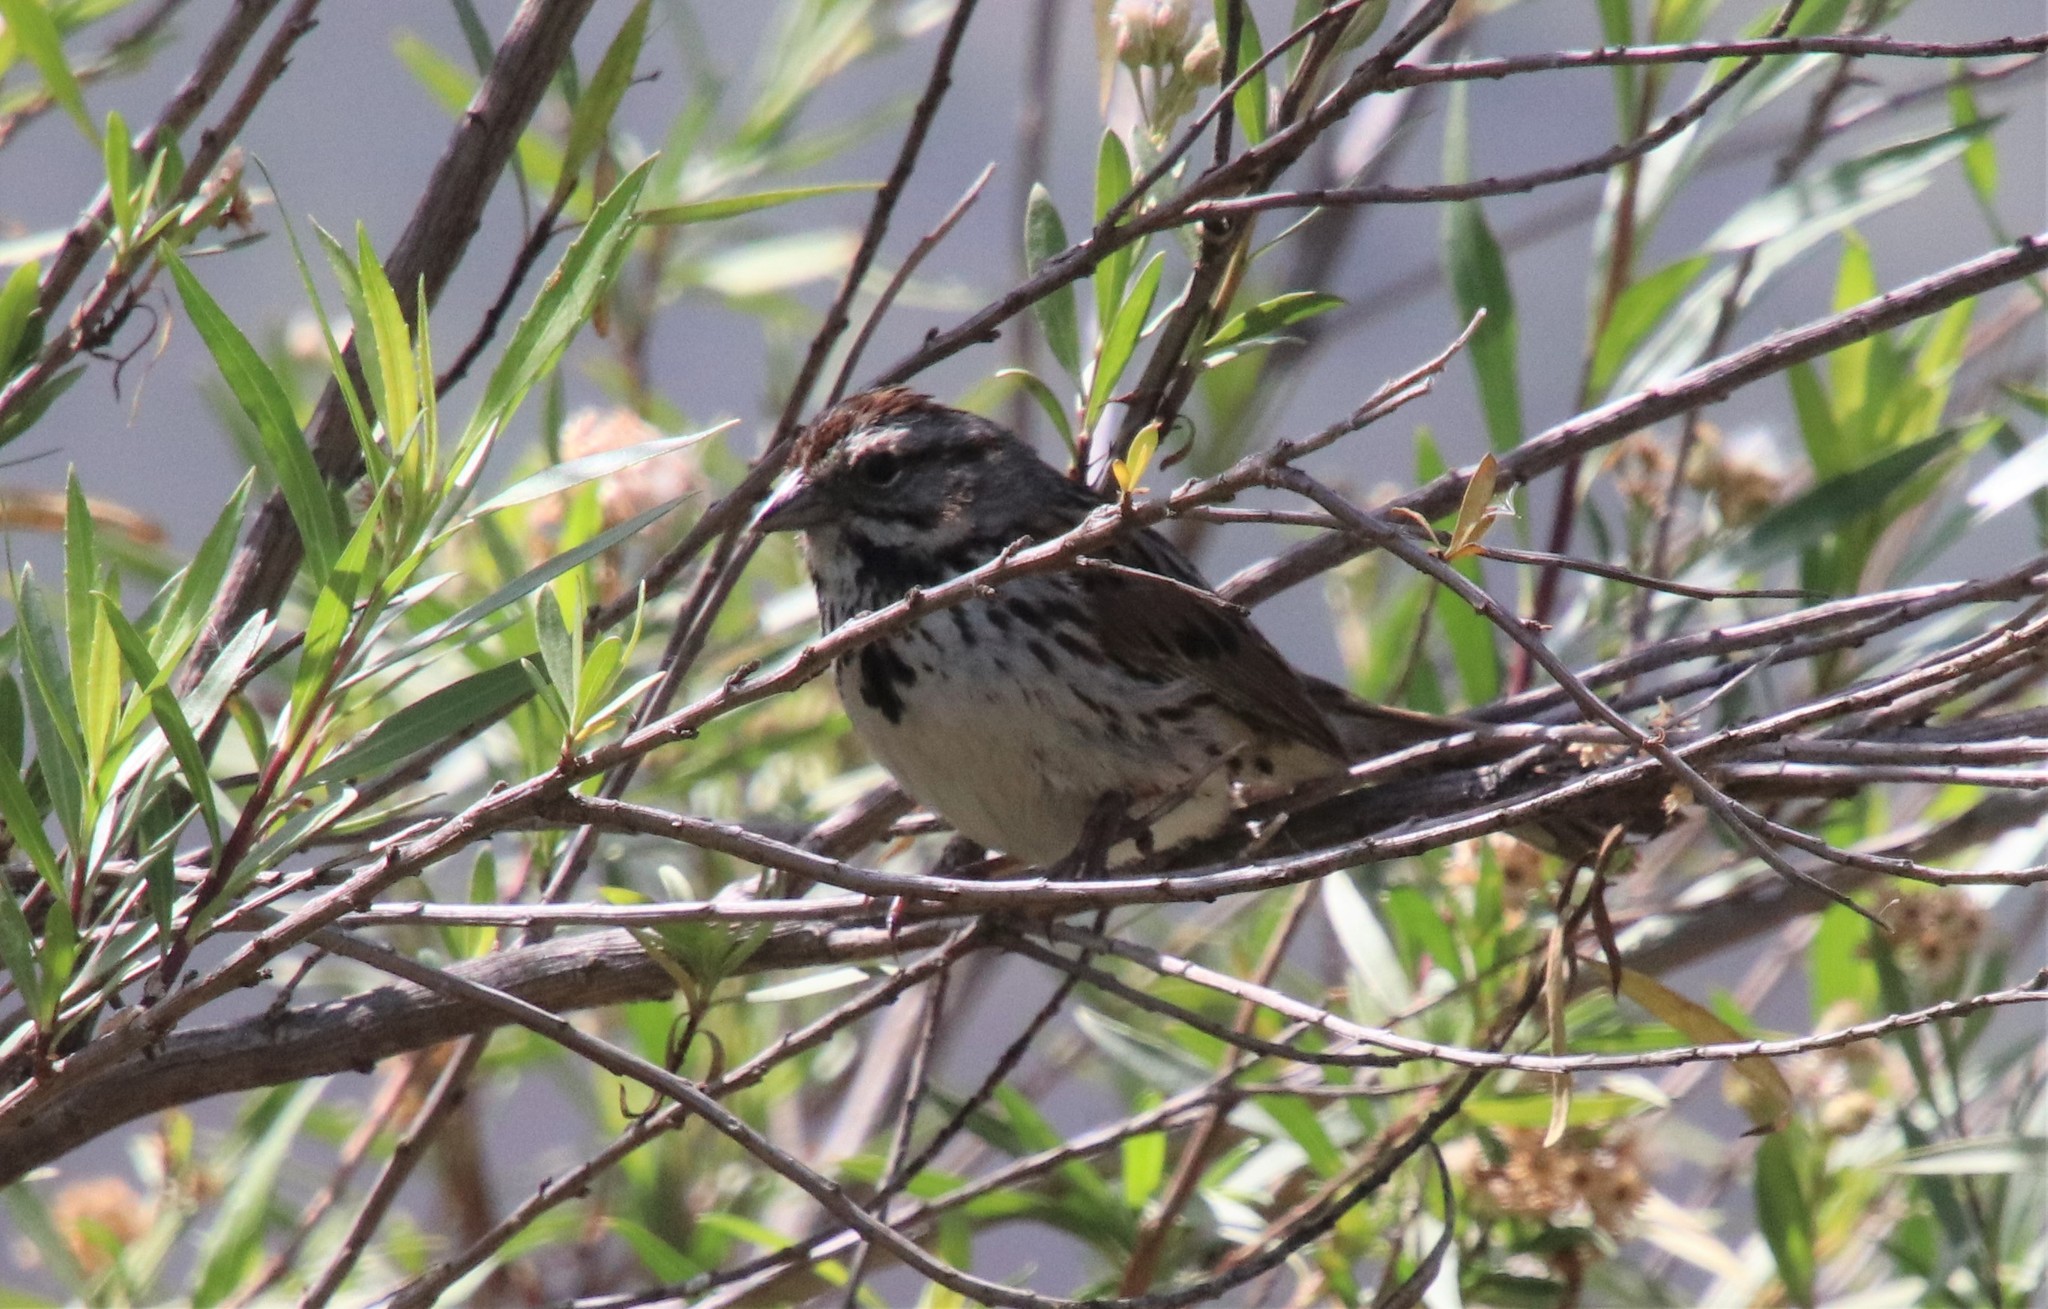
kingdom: Animalia
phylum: Chordata
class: Aves
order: Passeriformes
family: Passerellidae
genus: Melospiza
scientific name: Melospiza melodia
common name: Song sparrow
